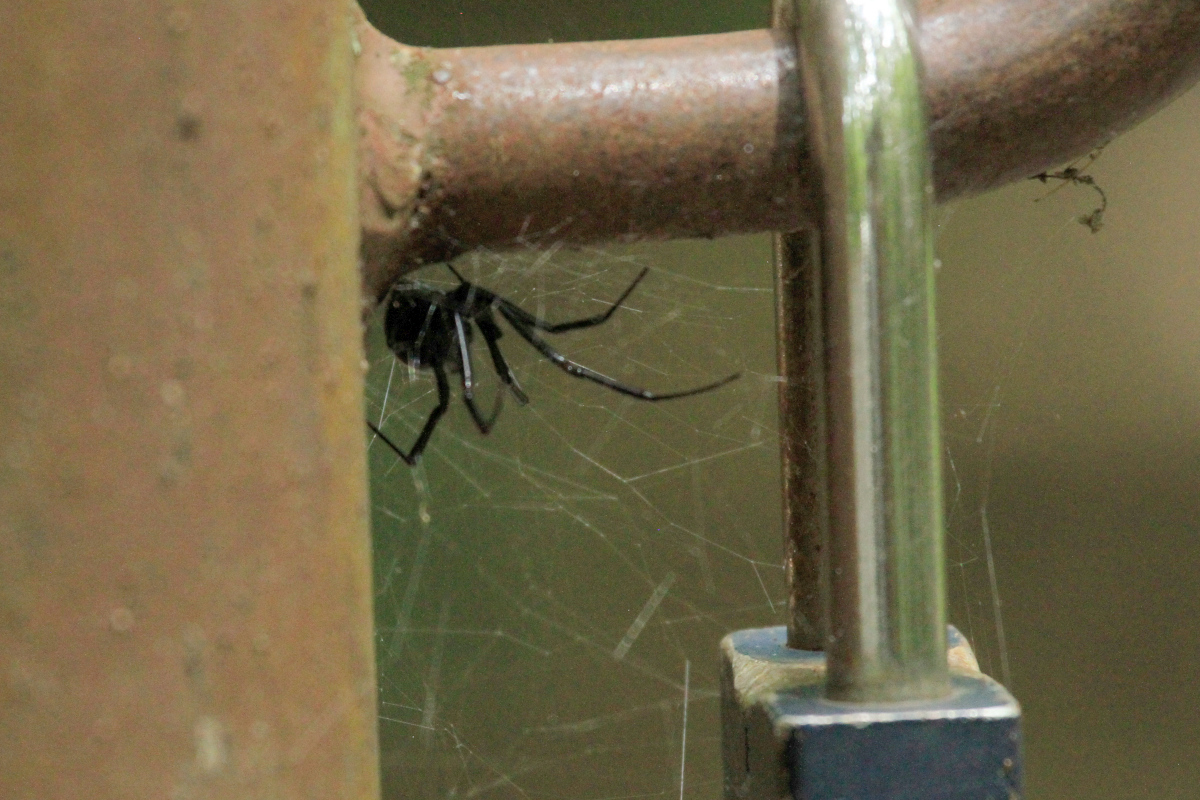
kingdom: Animalia
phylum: Arthropoda
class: Arachnida
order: Araneae
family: Theridiidae
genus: Latrodectus
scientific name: Latrodectus mactans
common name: Cobweb spiders
